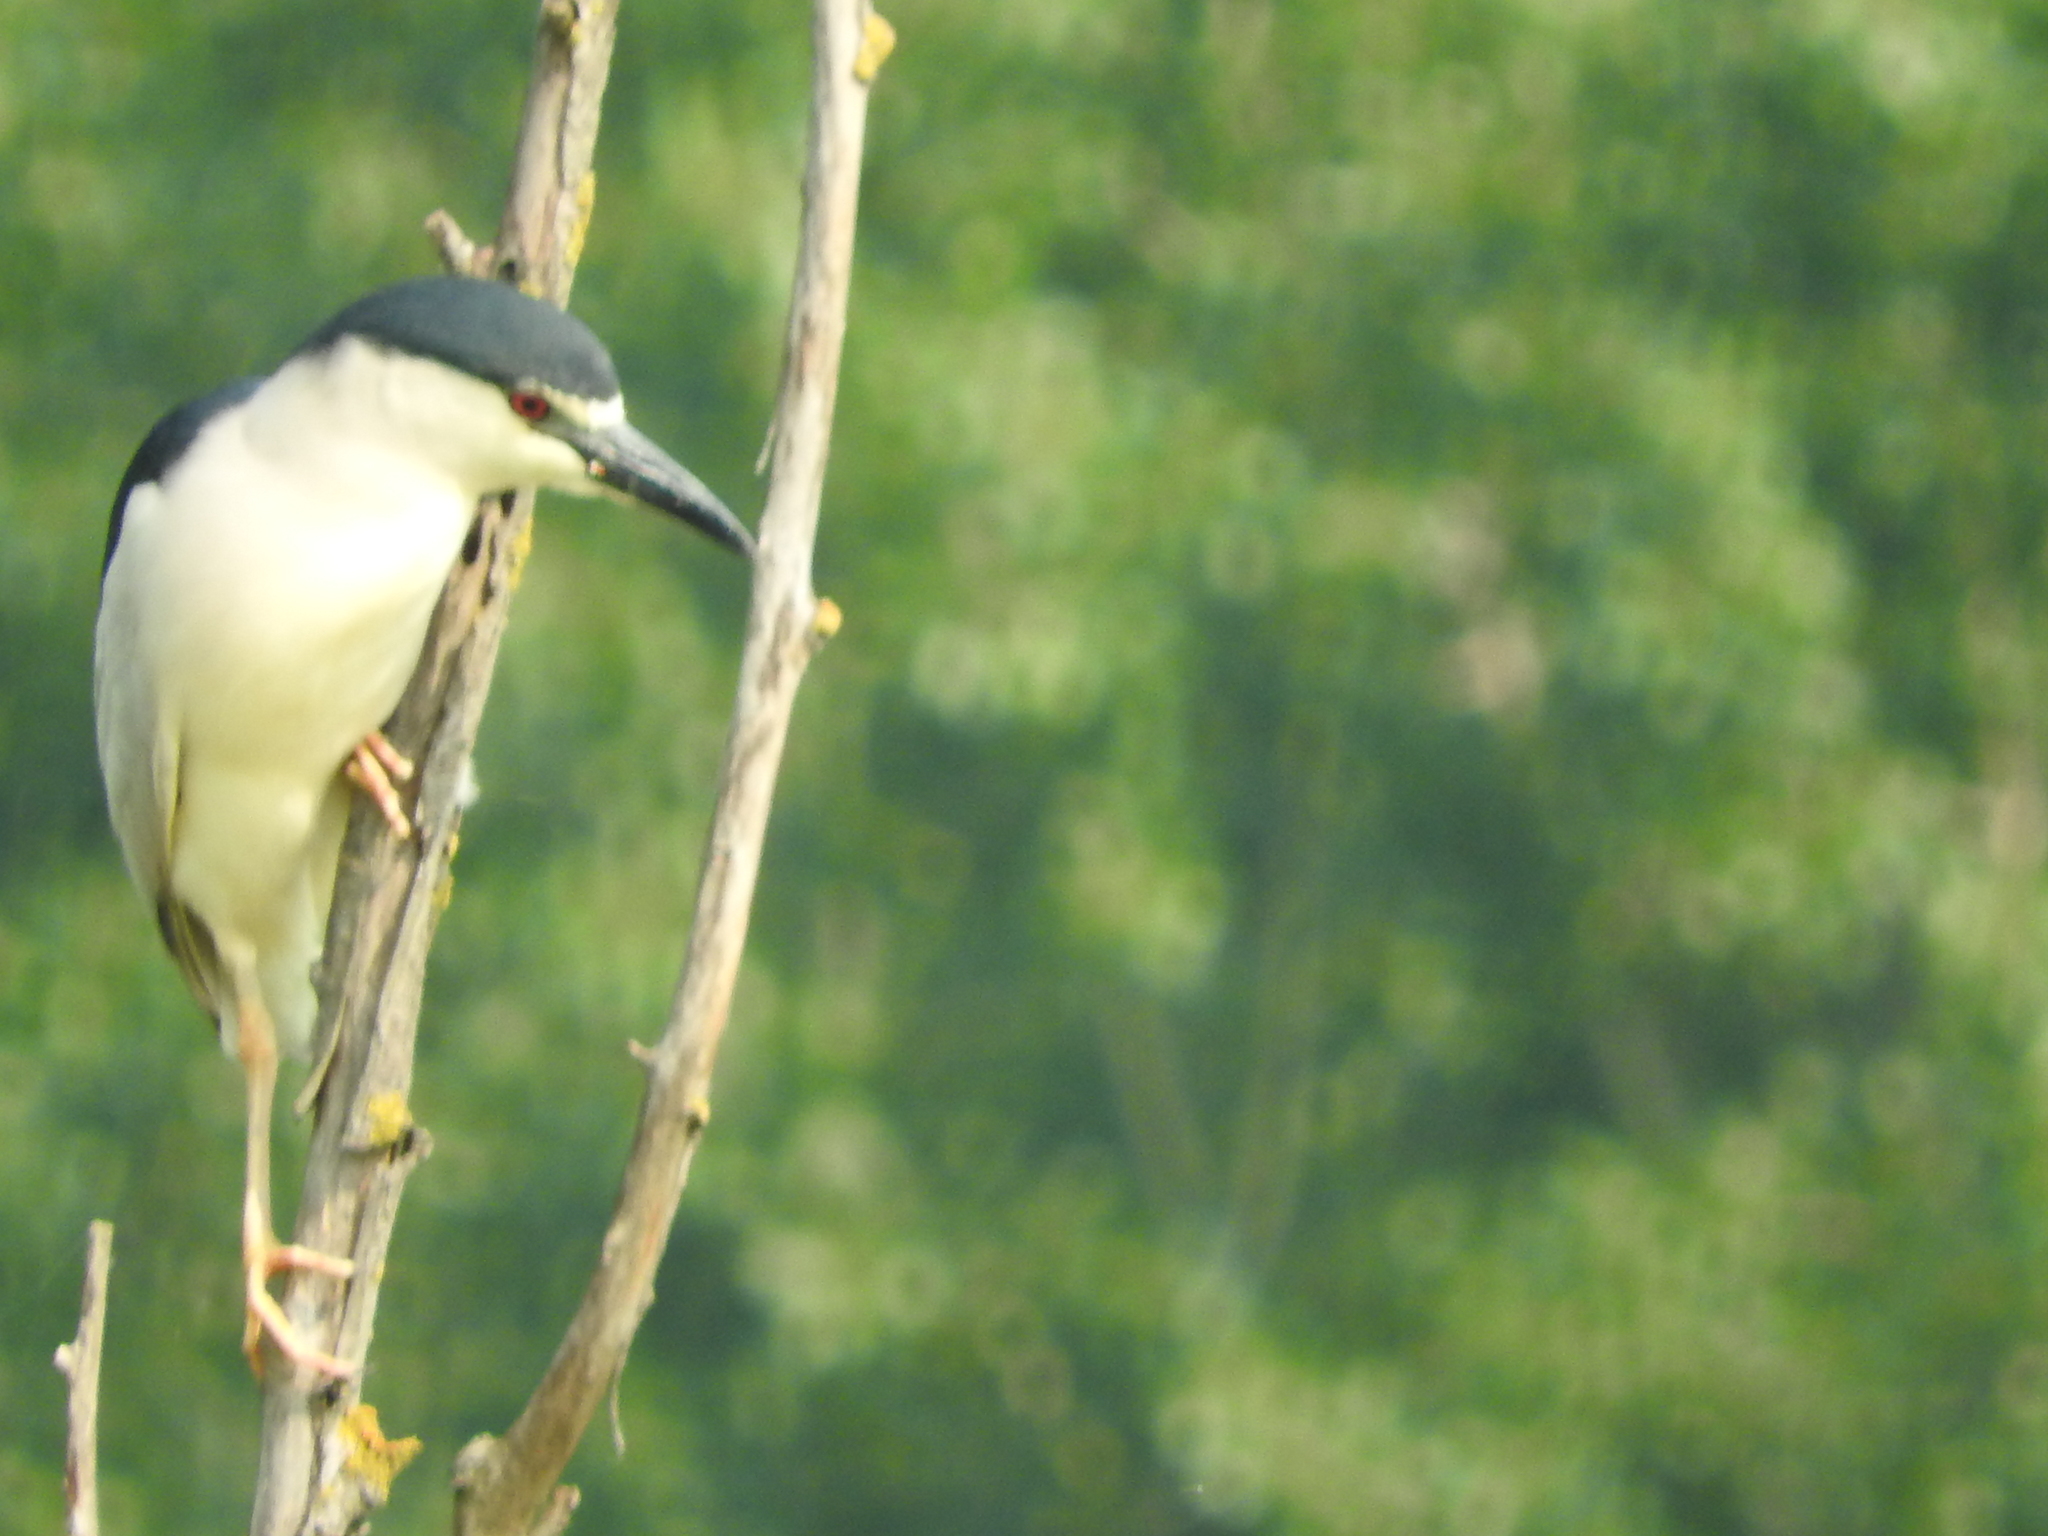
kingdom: Animalia
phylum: Chordata
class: Aves
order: Pelecaniformes
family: Ardeidae
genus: Nycticorax
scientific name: Nycticorax nycticorax
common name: Black-crowned night heron
